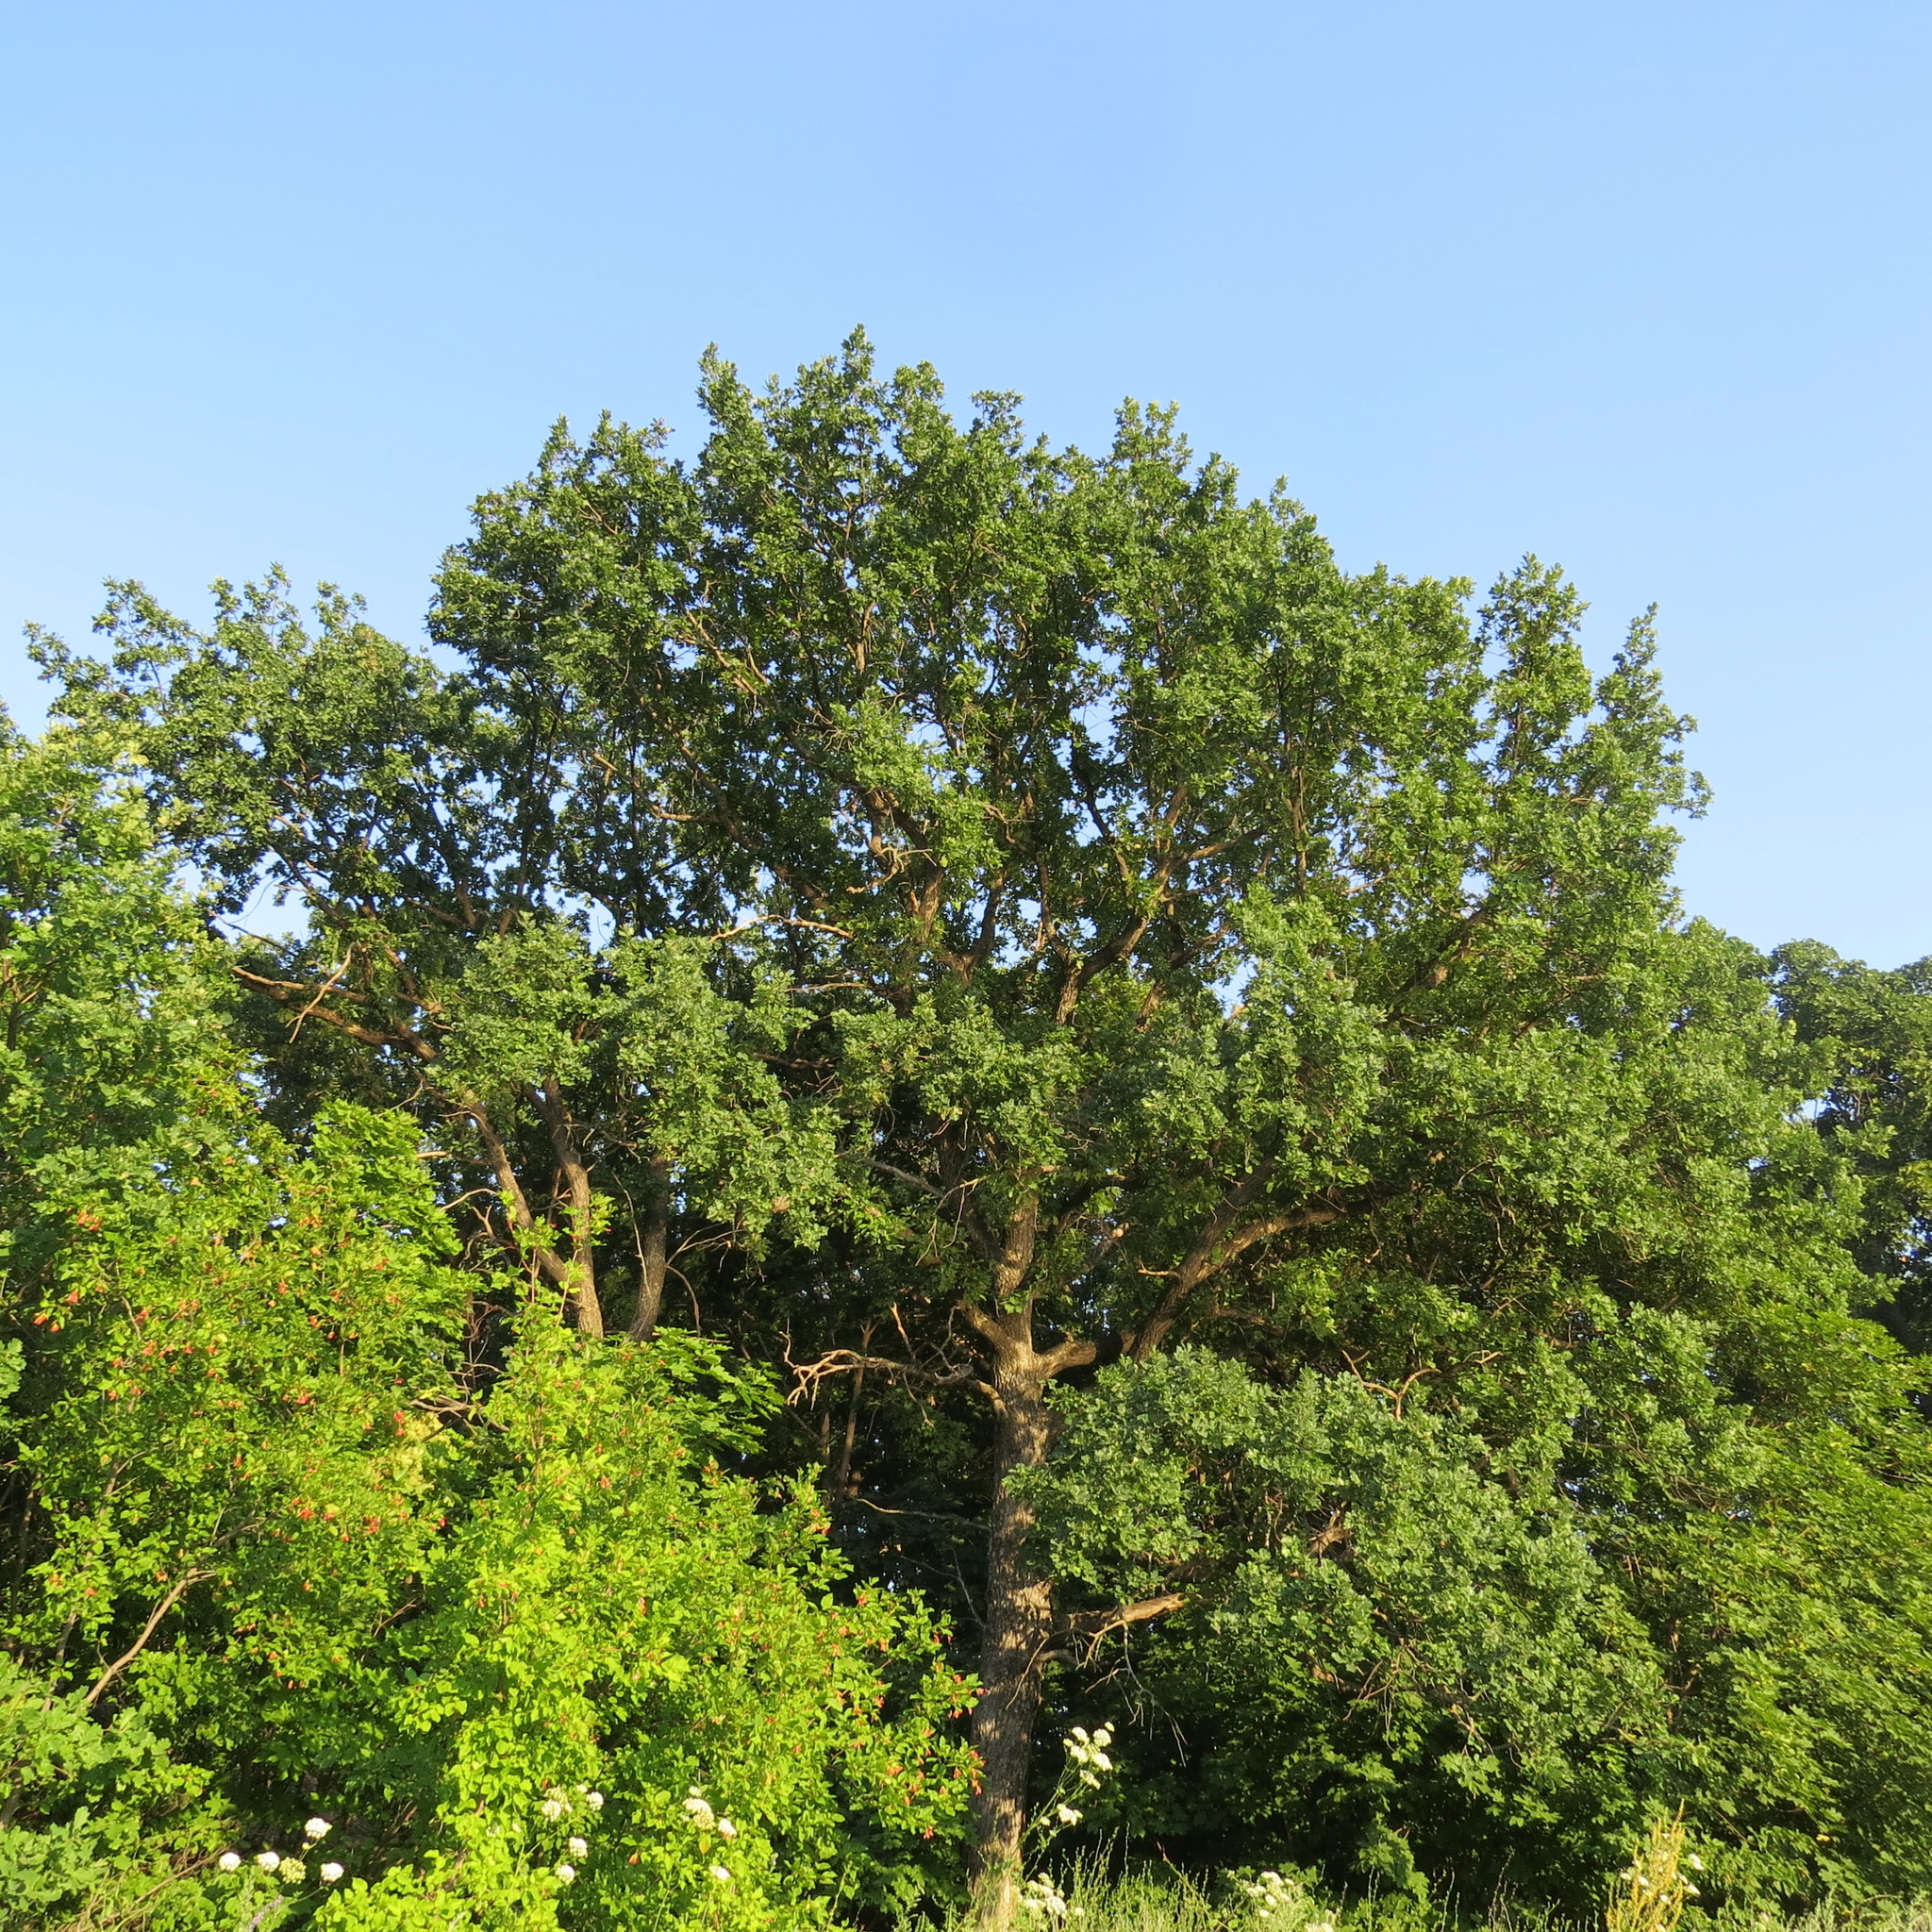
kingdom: Plantae
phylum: Tracheophyta
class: Magnoliopsida
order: Fagales
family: Fagaceae
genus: Quercus
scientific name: Quercus robur
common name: Pedunculate oak
